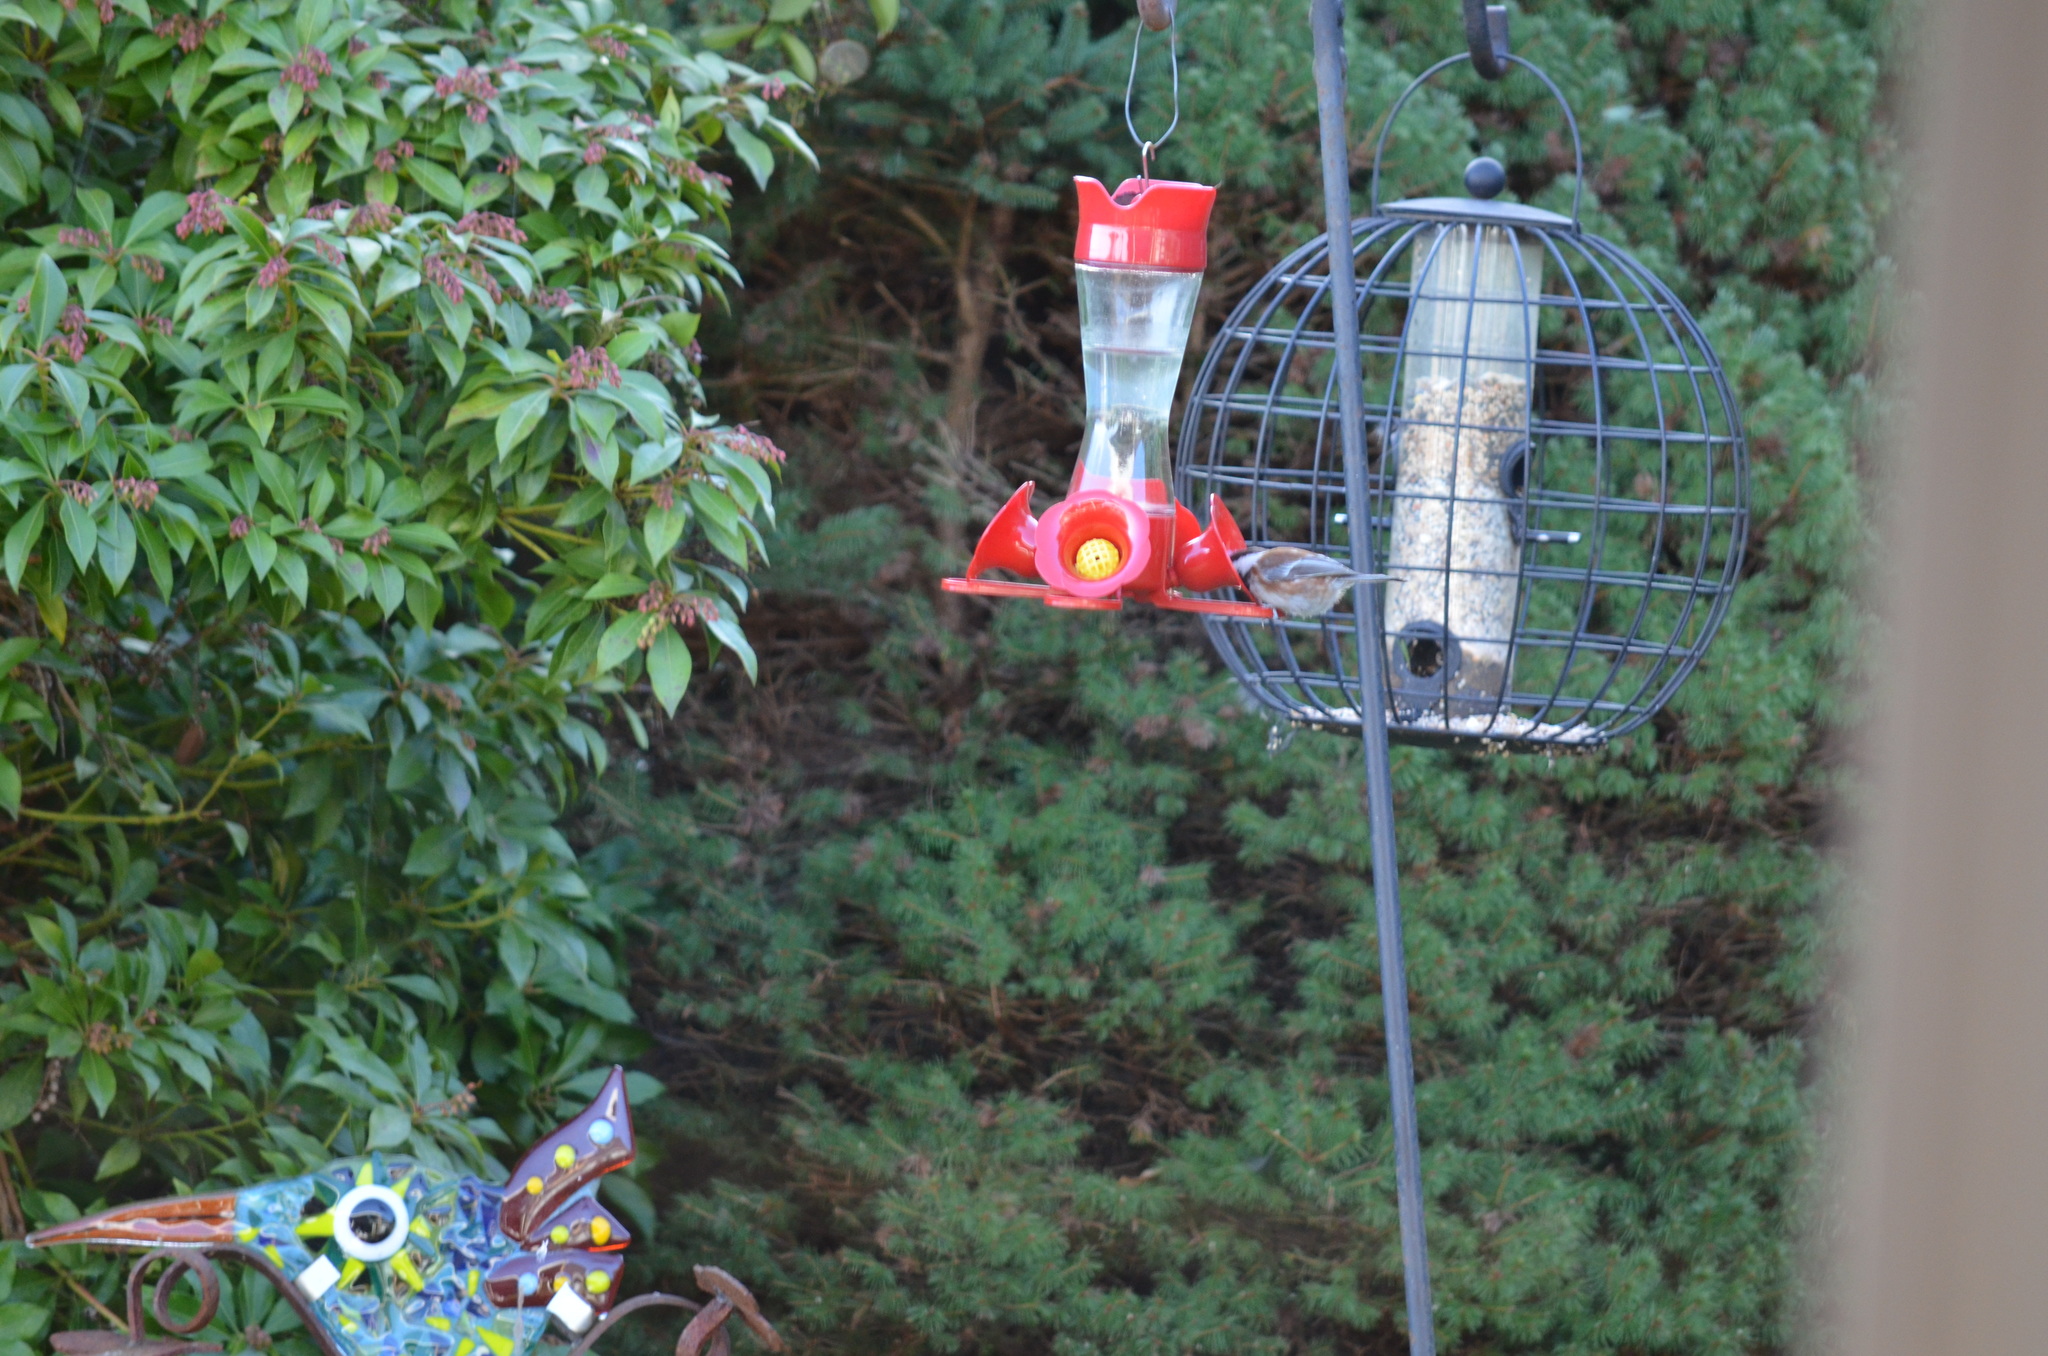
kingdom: Animalia
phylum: Chordata
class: Aves
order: Passeriformes
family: Paridae
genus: Poecile
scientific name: Poecile rufescens
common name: Chestnut-backed chickadee
